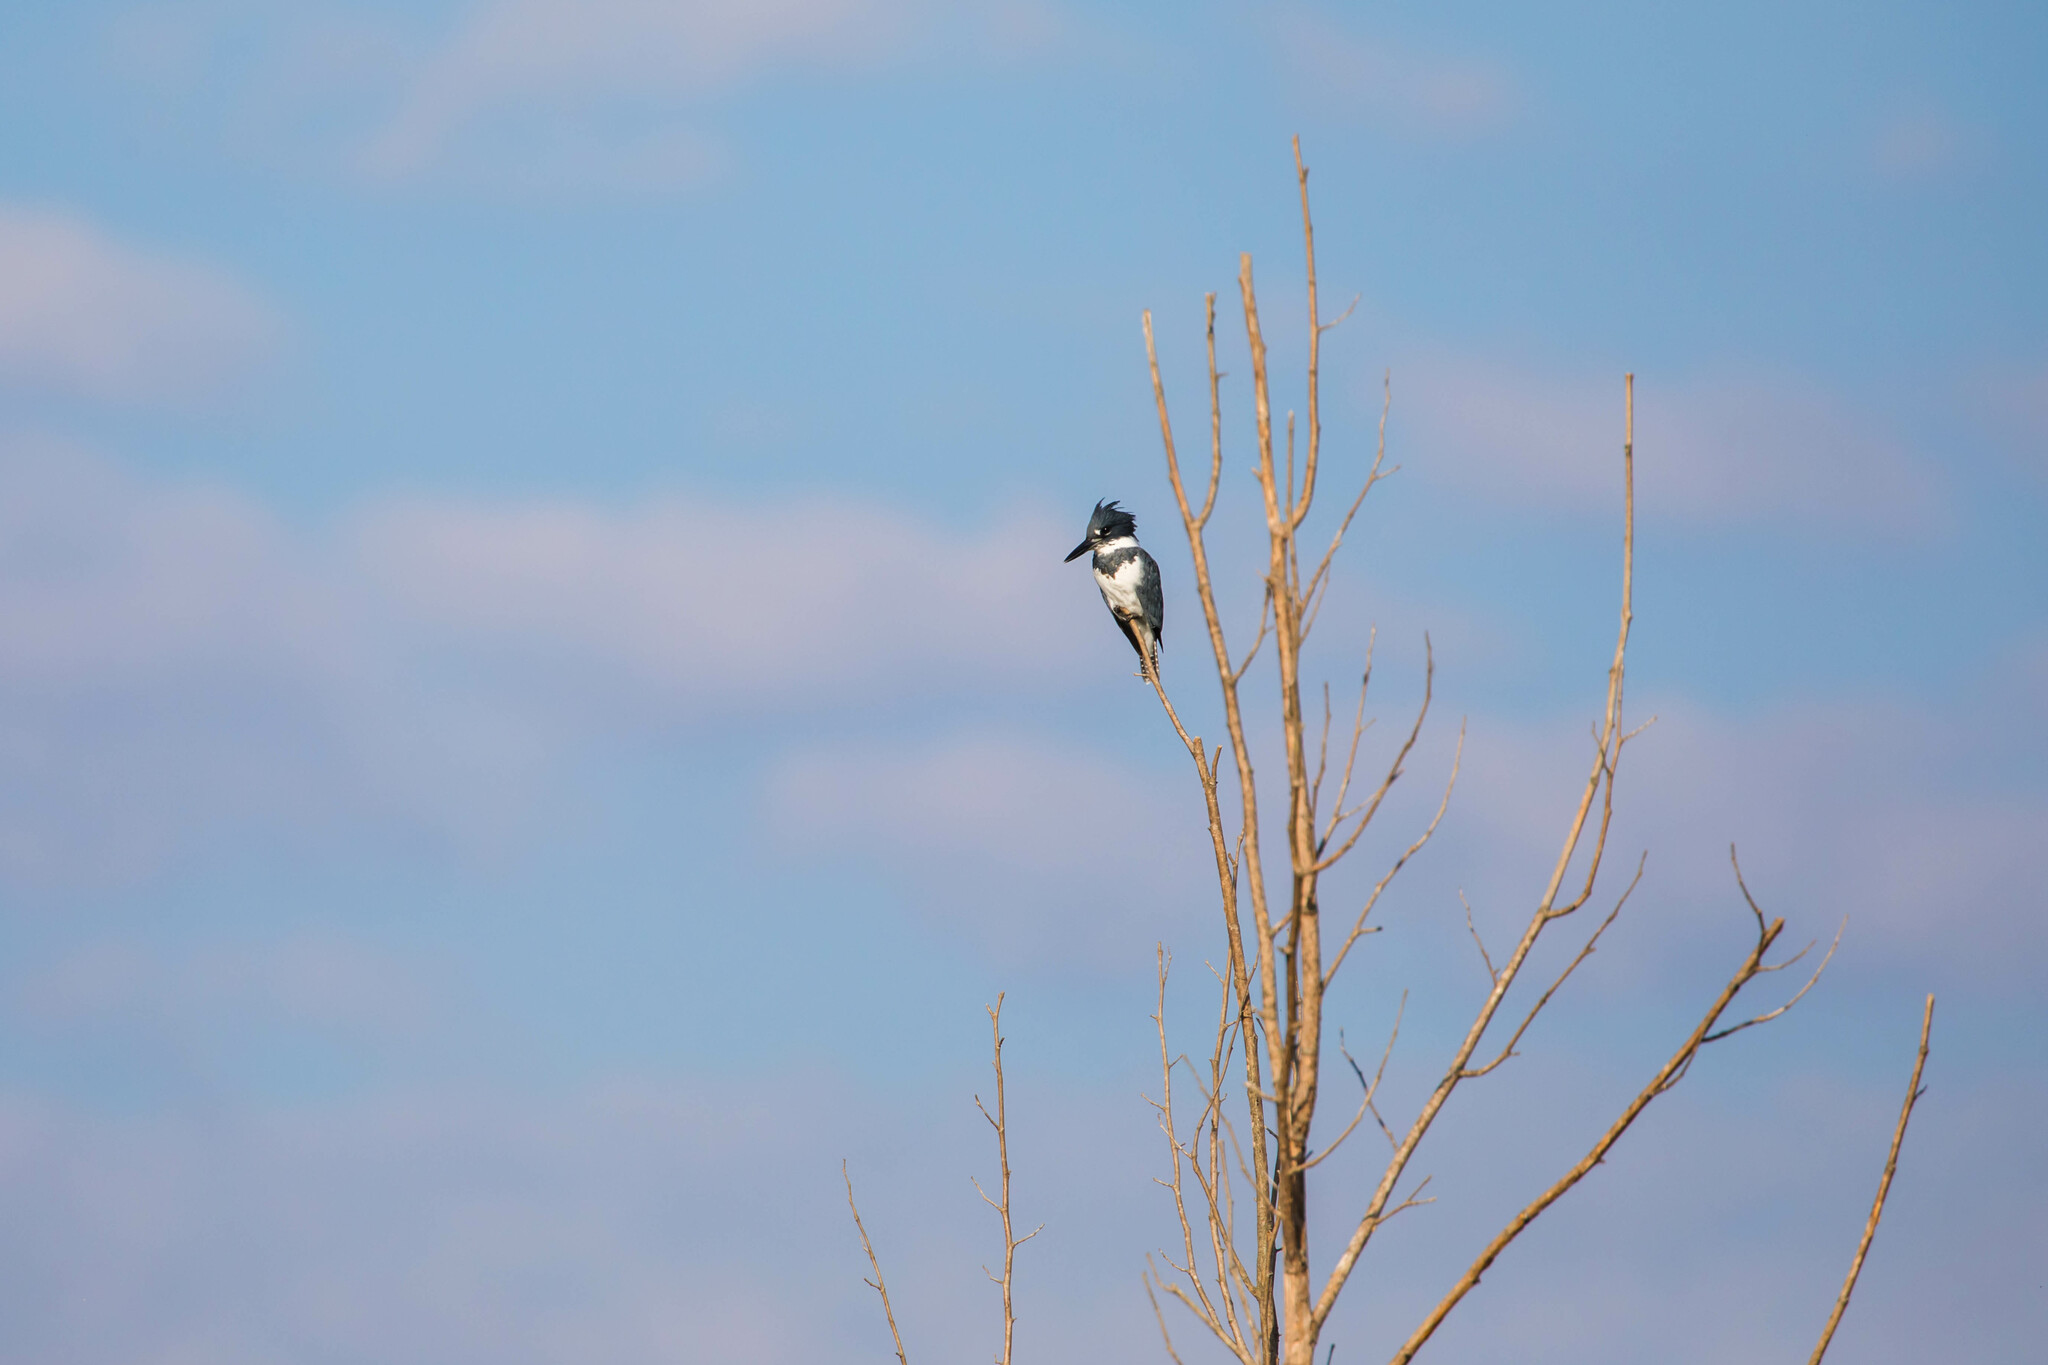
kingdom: Animalia
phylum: Chordata
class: Aves
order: Coraciiformes
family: Alcedinidae
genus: Megaceryle
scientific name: Megaceryle alcyon
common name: Belted kingfisher
